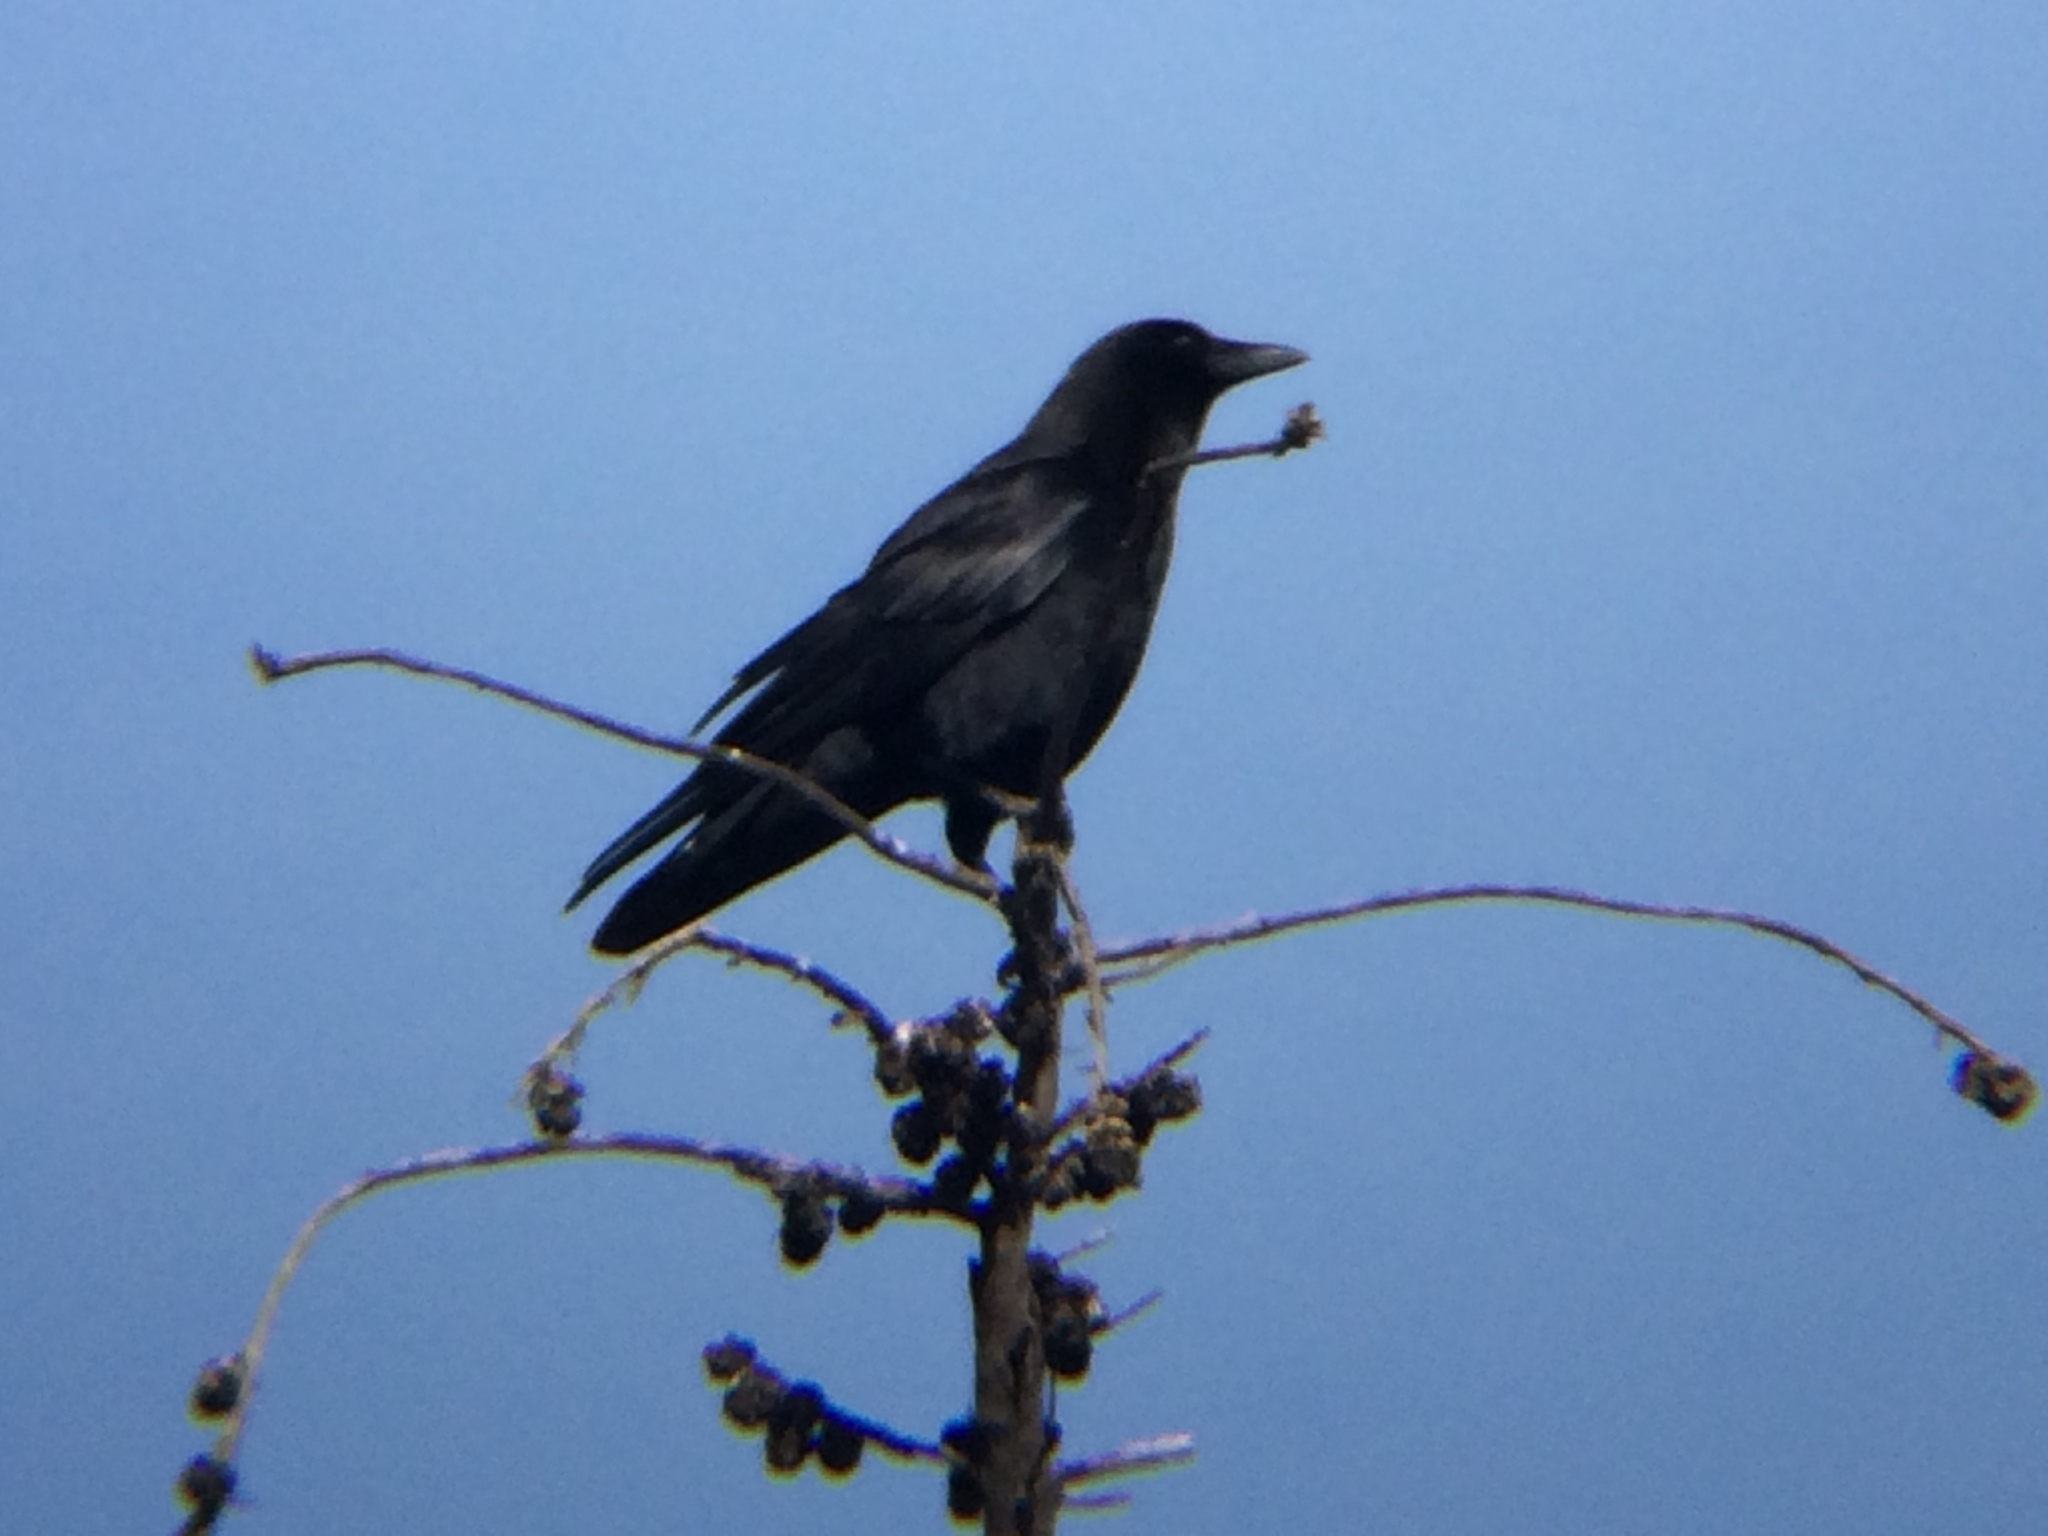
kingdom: Animalia
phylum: Chordata
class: Aves
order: Passeriformes
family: Corvidae
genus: Corvus
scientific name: Corvus brachyrhynchos
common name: American crow
